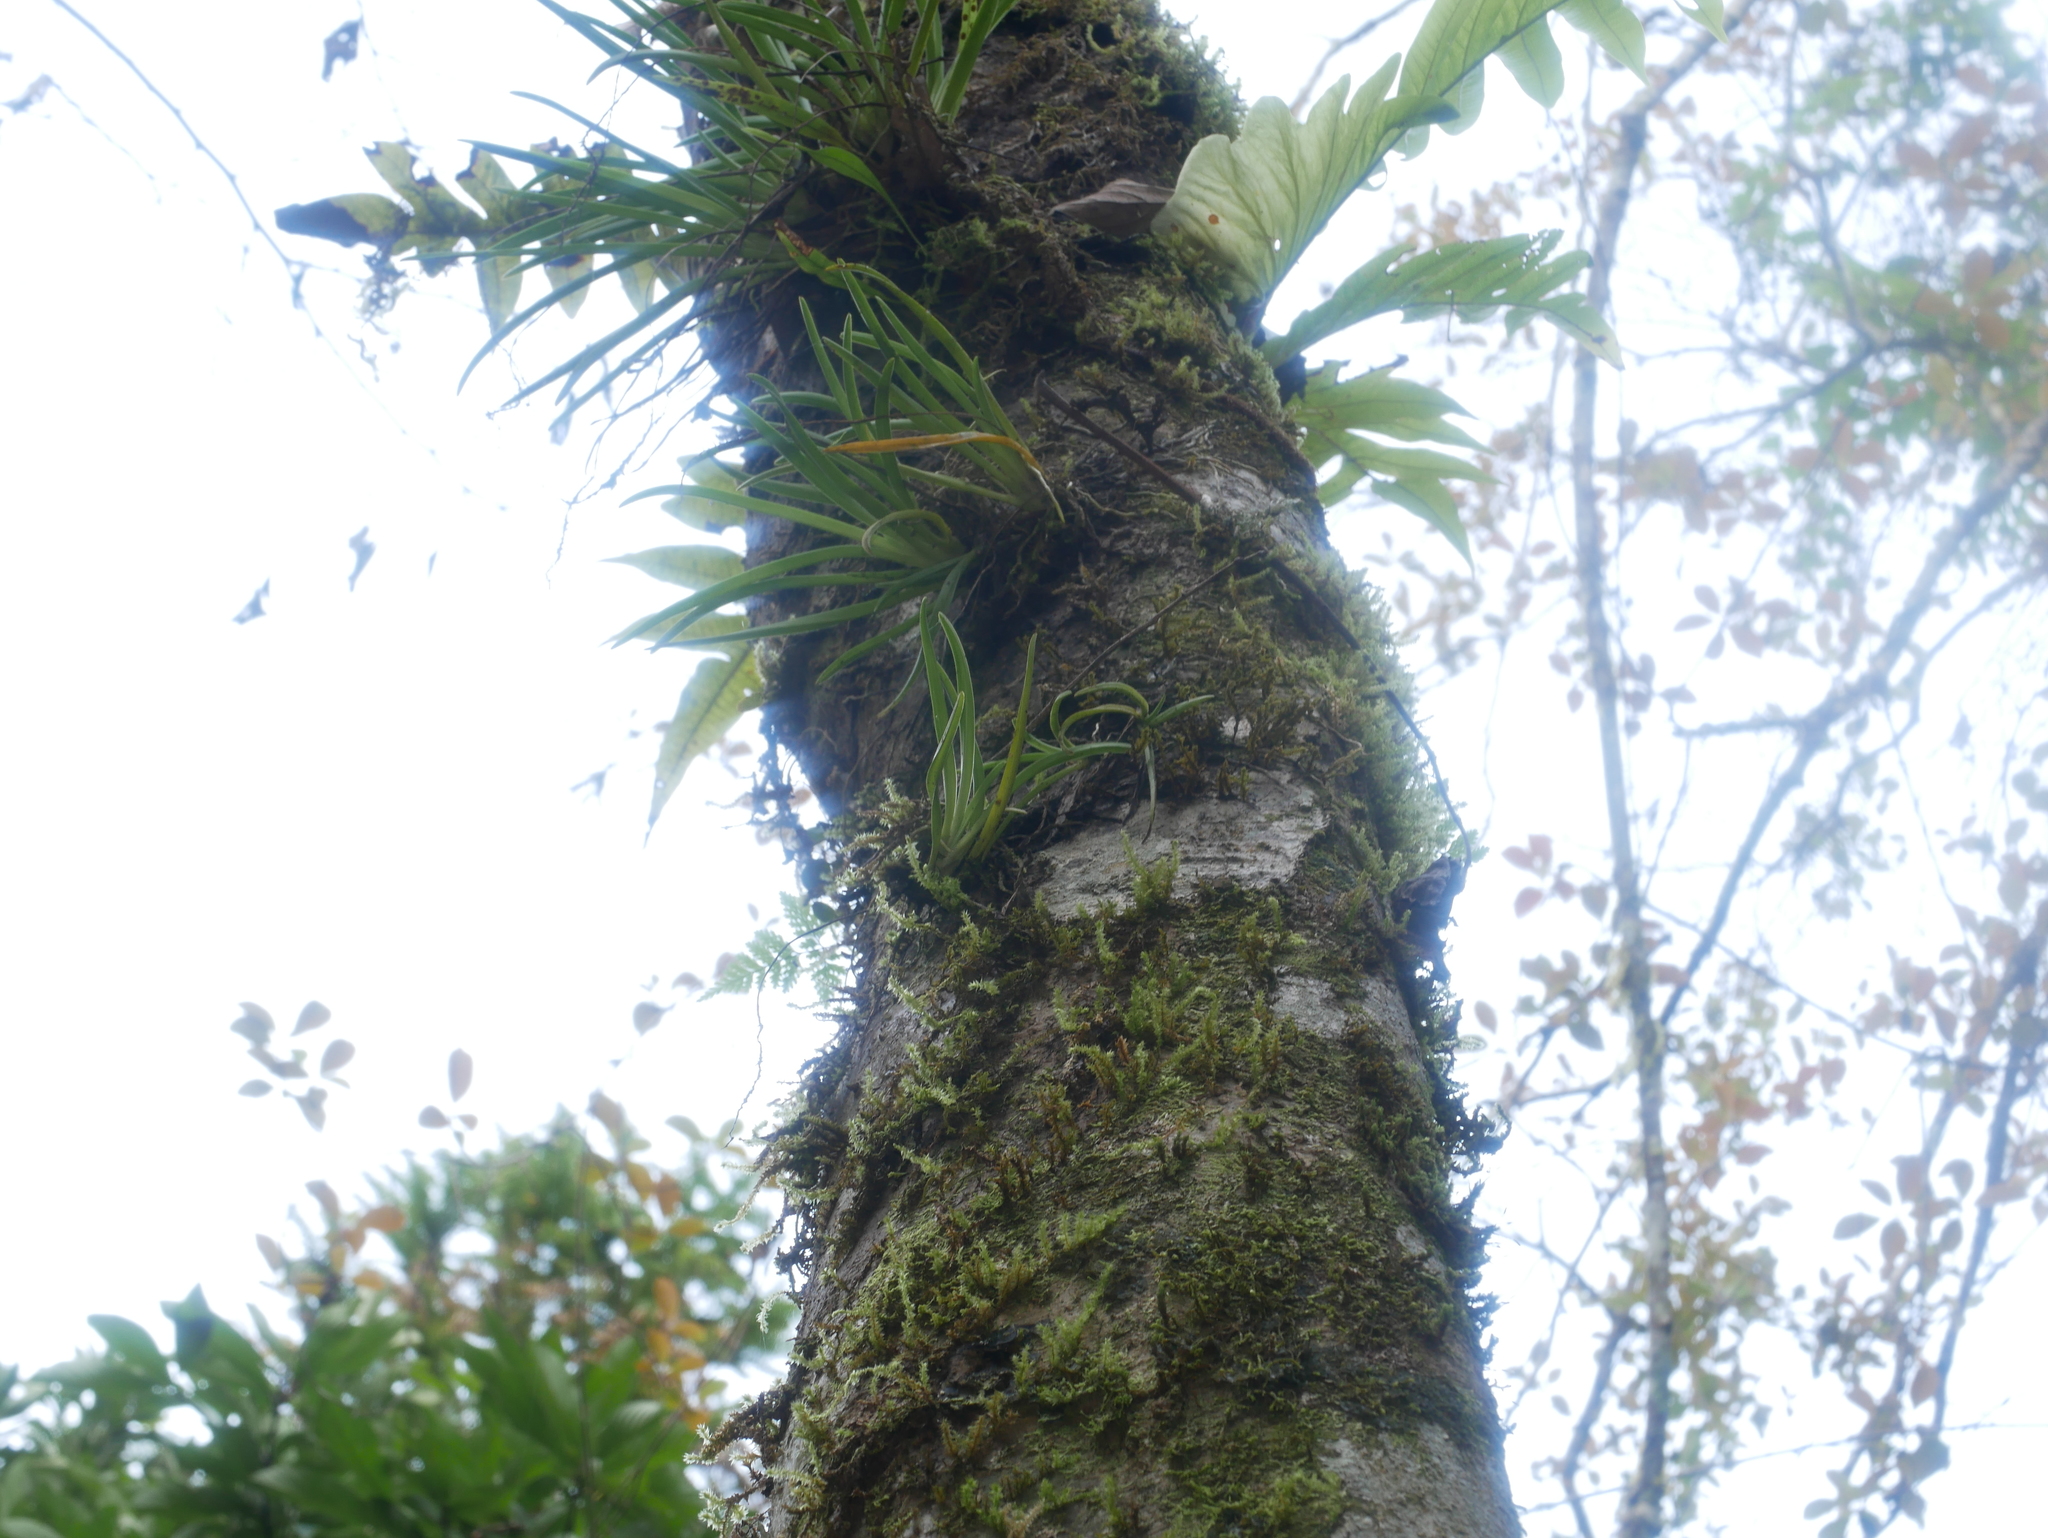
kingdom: Plantae
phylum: Tracheophyta
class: Liliopsida
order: Asparagales
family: Orchidaceae
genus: Oberonia
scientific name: Oberonia caulescens
